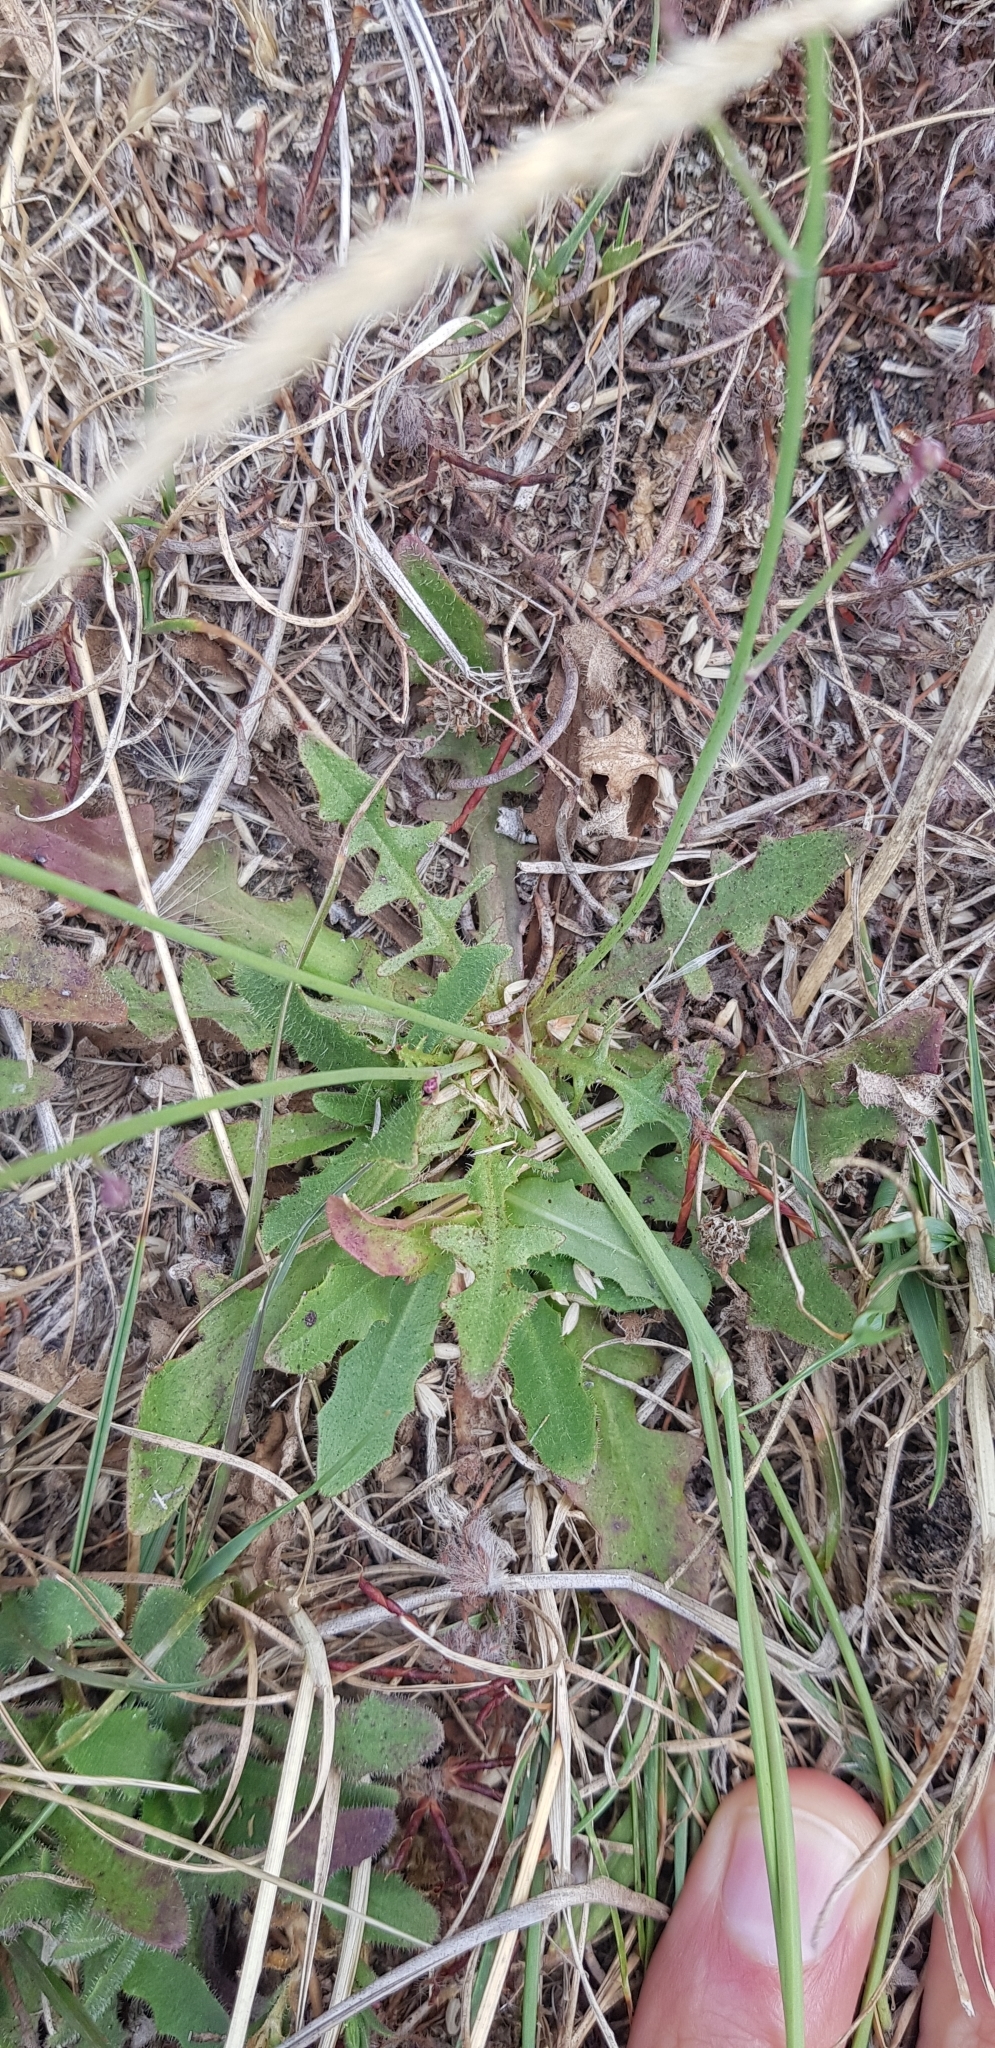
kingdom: Plantae
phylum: Tracheophyta
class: Magnoliopsida
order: Asterales
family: Asteraceae
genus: Hypochaeris
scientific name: Hypochaeris radicata
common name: Flatweed
